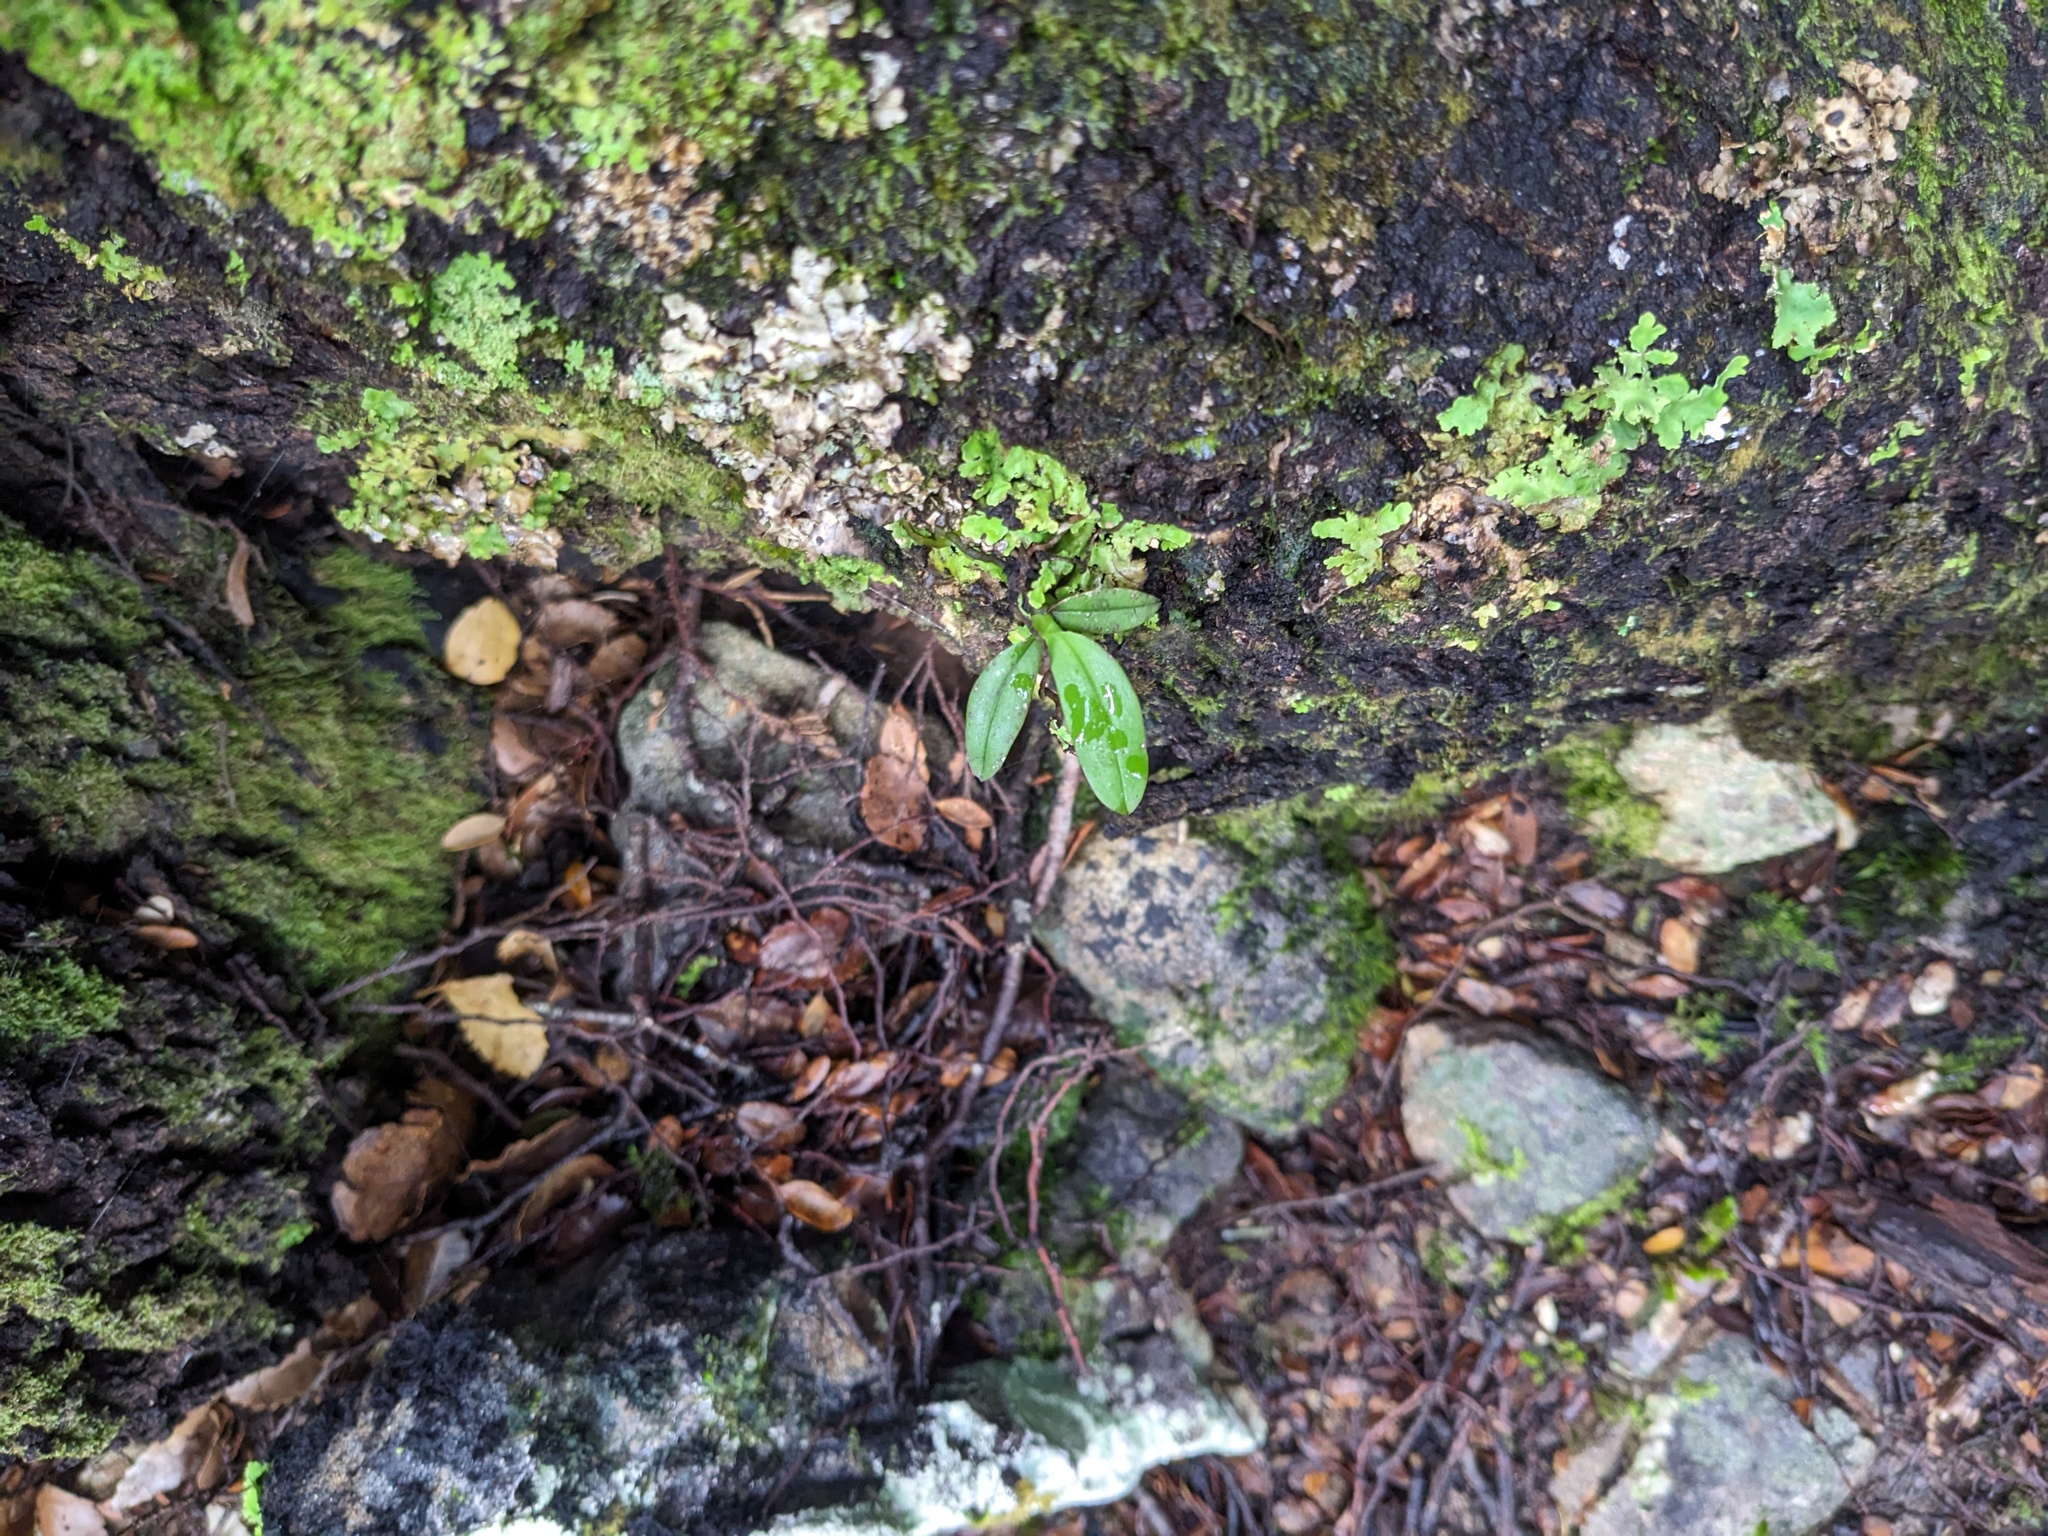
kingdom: Plantae
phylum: Tracheophyta
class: Liliopsida
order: Asparagales
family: Orchidaceae
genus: Drymoanthus
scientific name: Drymoanthus adversus
